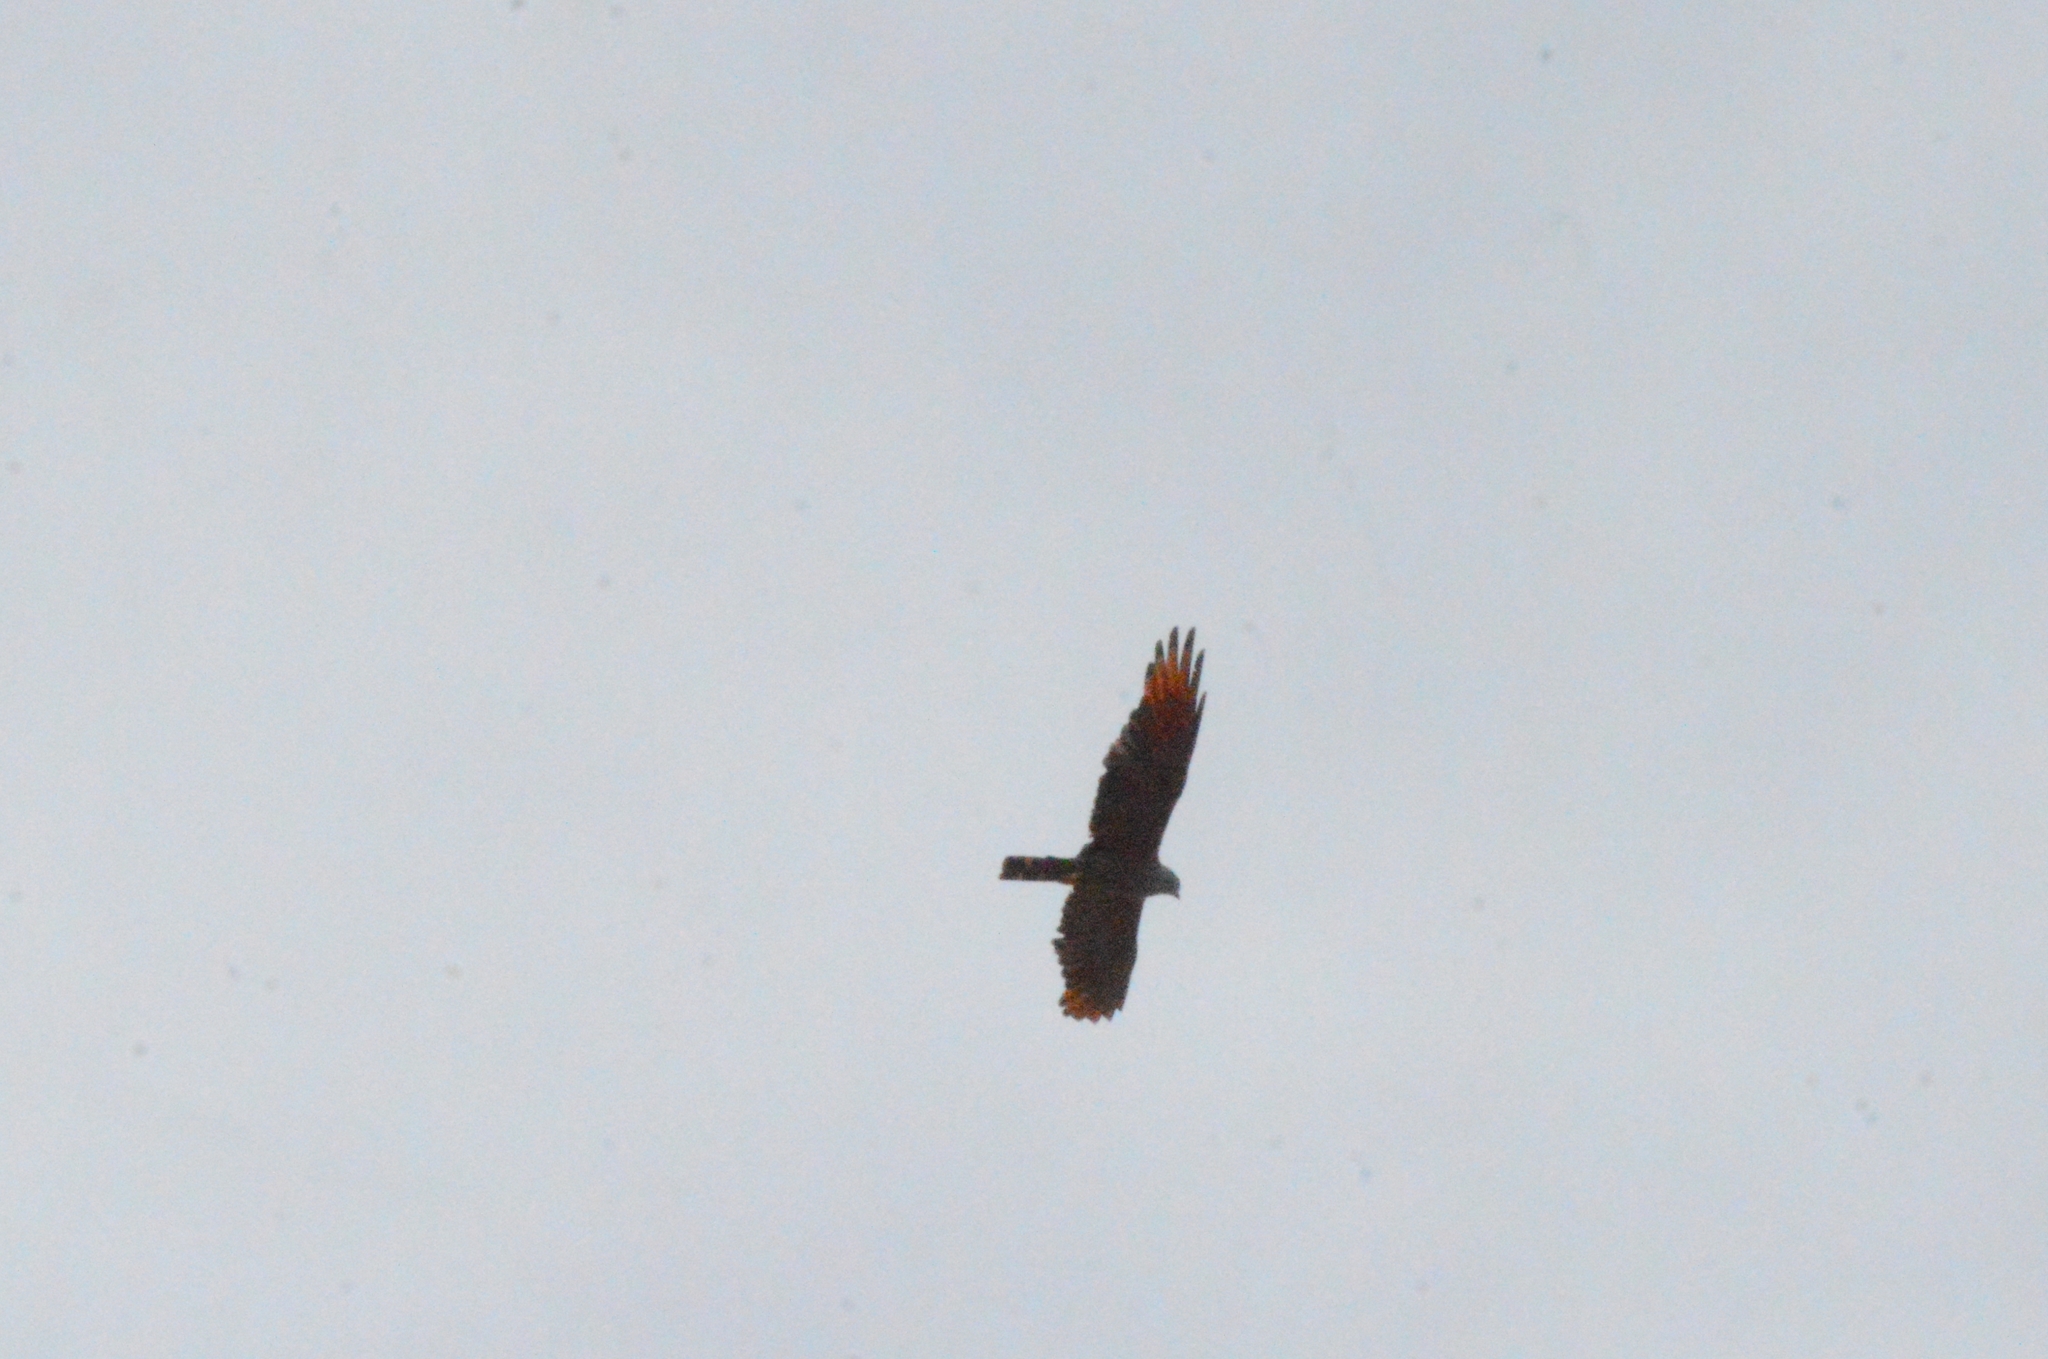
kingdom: Animalia
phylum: Chordata
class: Aves
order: Accipitriformes
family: Accipitridae
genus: Ictinia
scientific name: Ictinia plumbea
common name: Plumbeous kite
